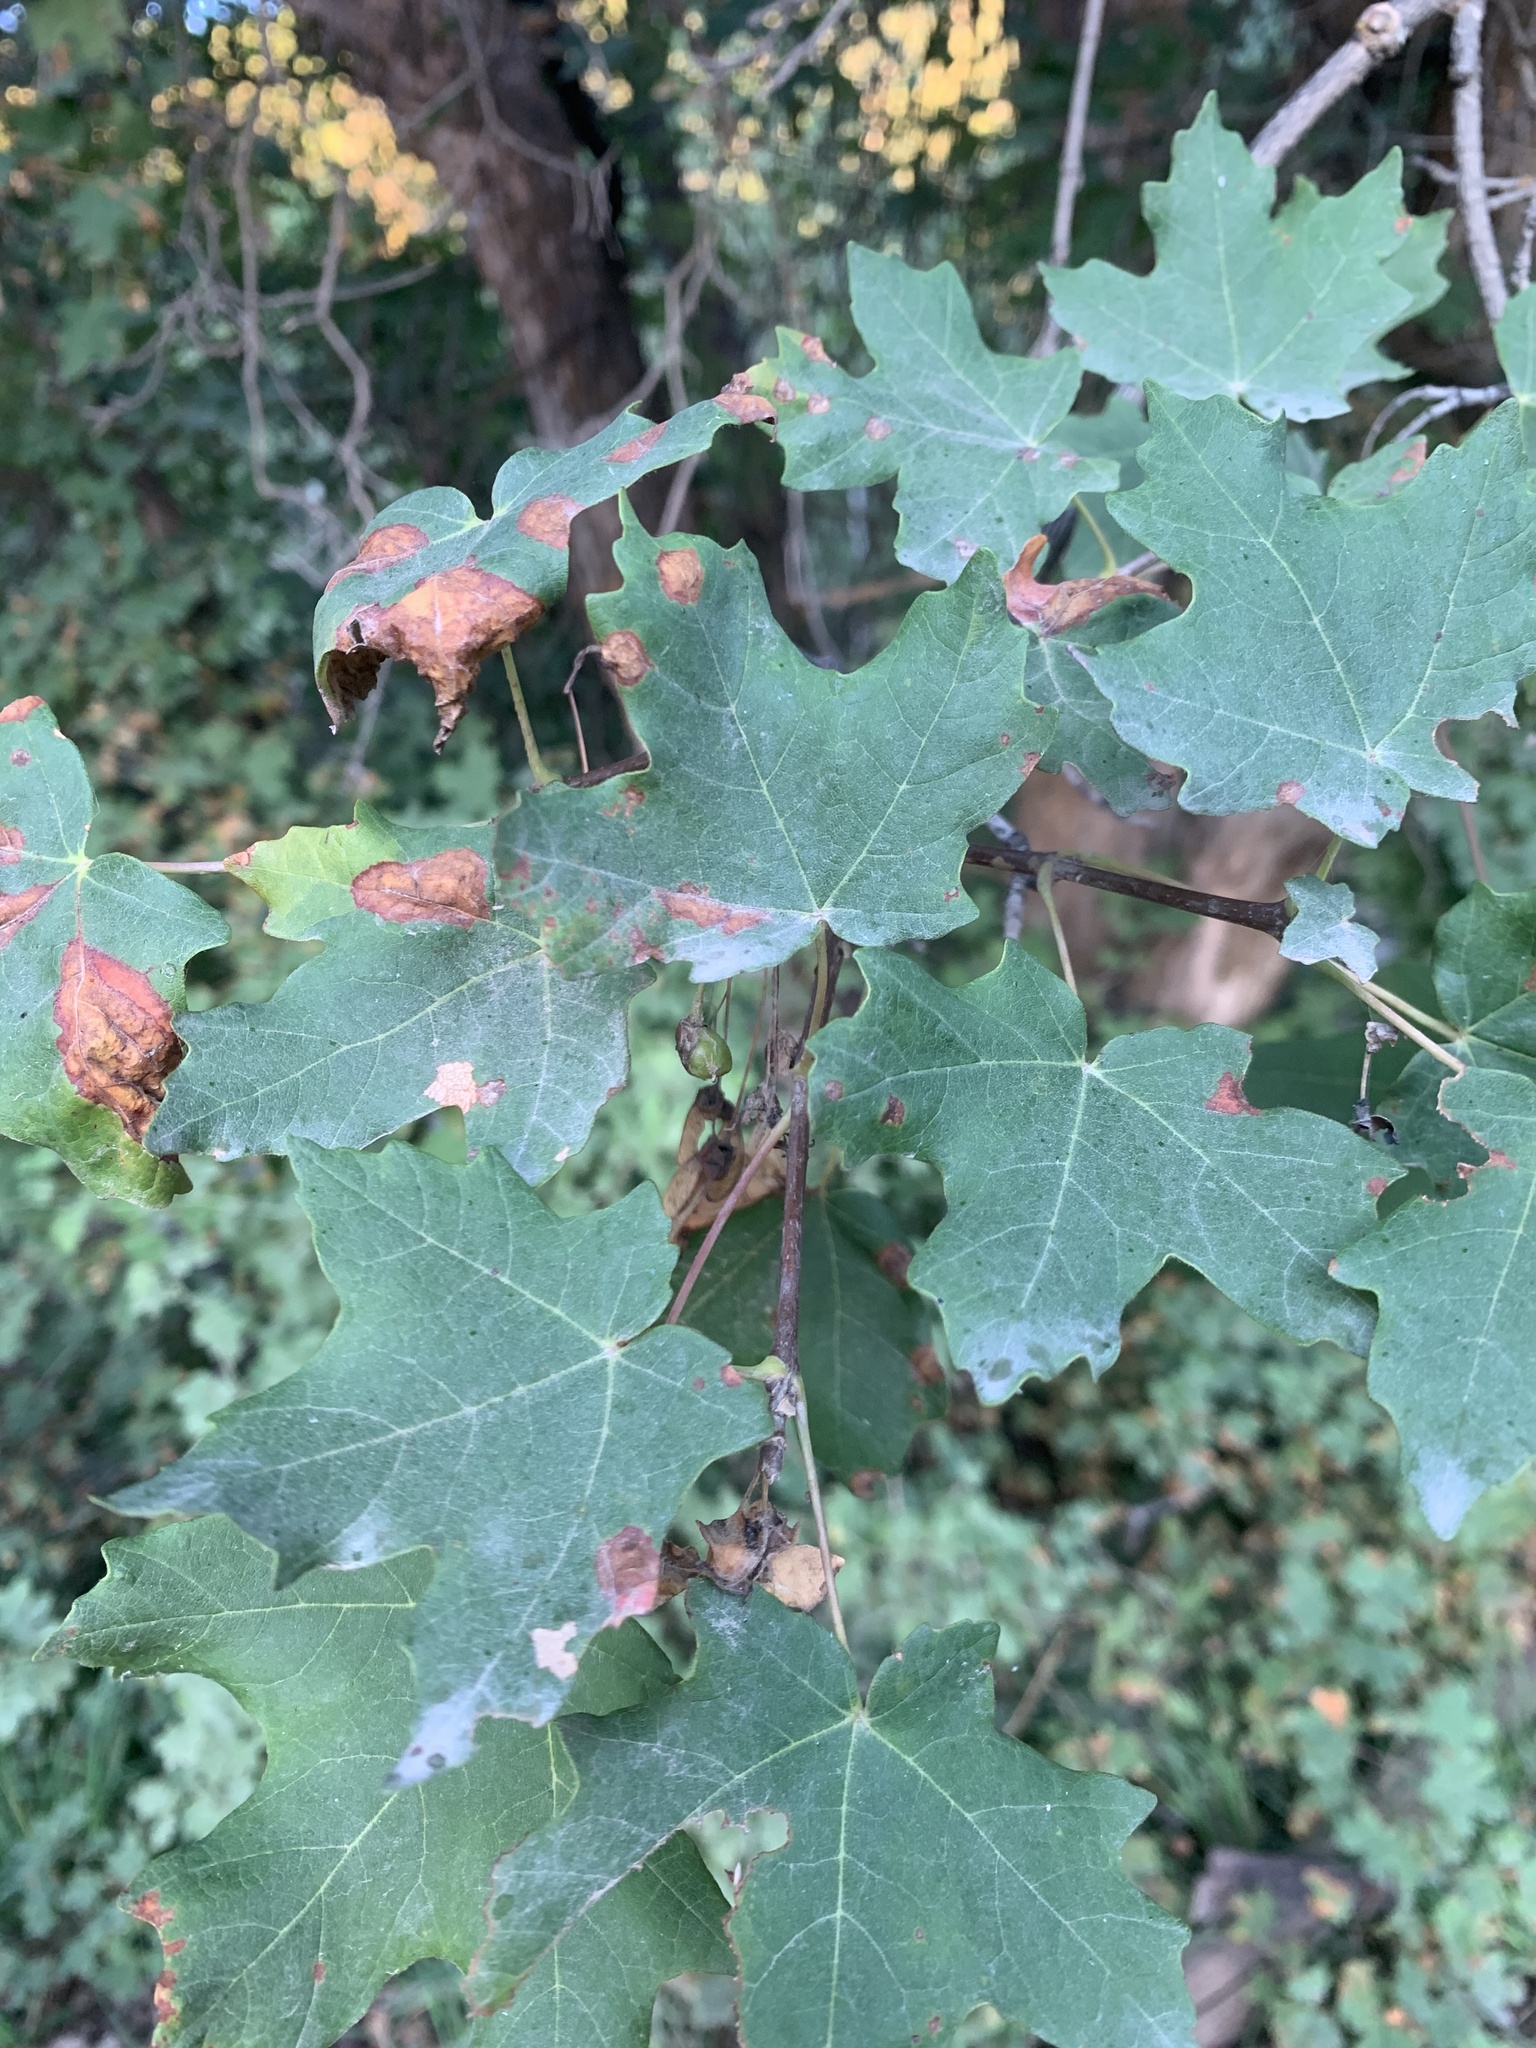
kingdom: Plantae
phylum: Tracheophyta
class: Magnoliopsida
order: Sapindales
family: Sapindaceae
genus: Acer
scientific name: Acer grandidentatum
